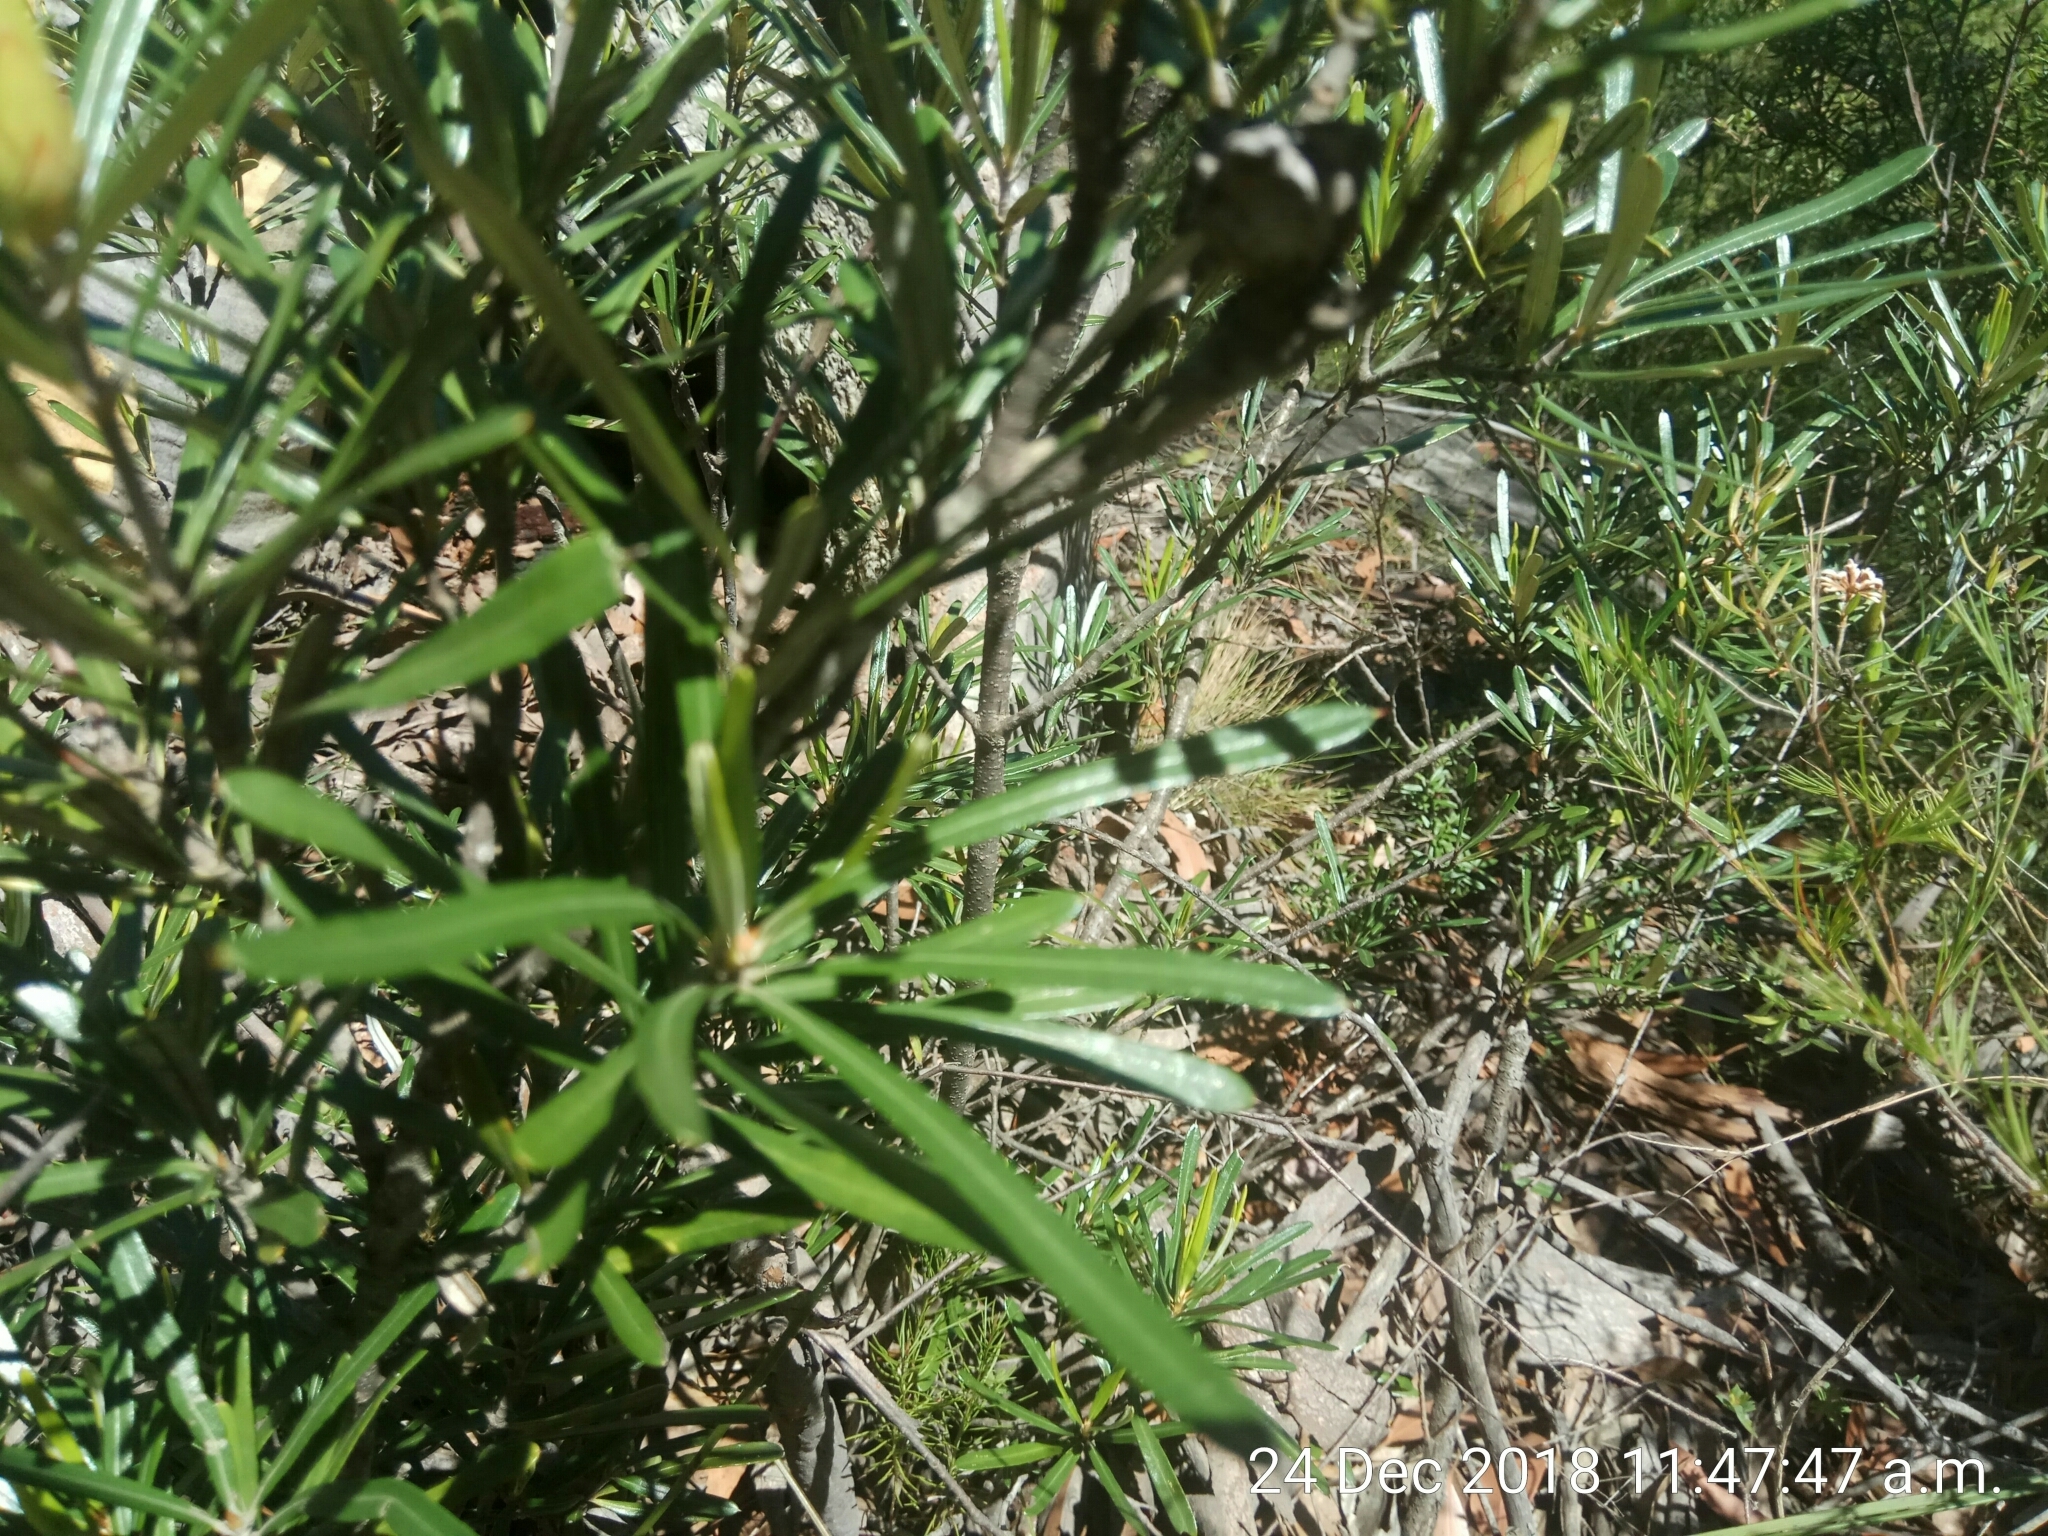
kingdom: Plantae
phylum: Tracheophyta
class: Magnoliopsida
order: Proteales
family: Proteaceae
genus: Lambertia
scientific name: Lambertia formosa
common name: Mountain-devil
